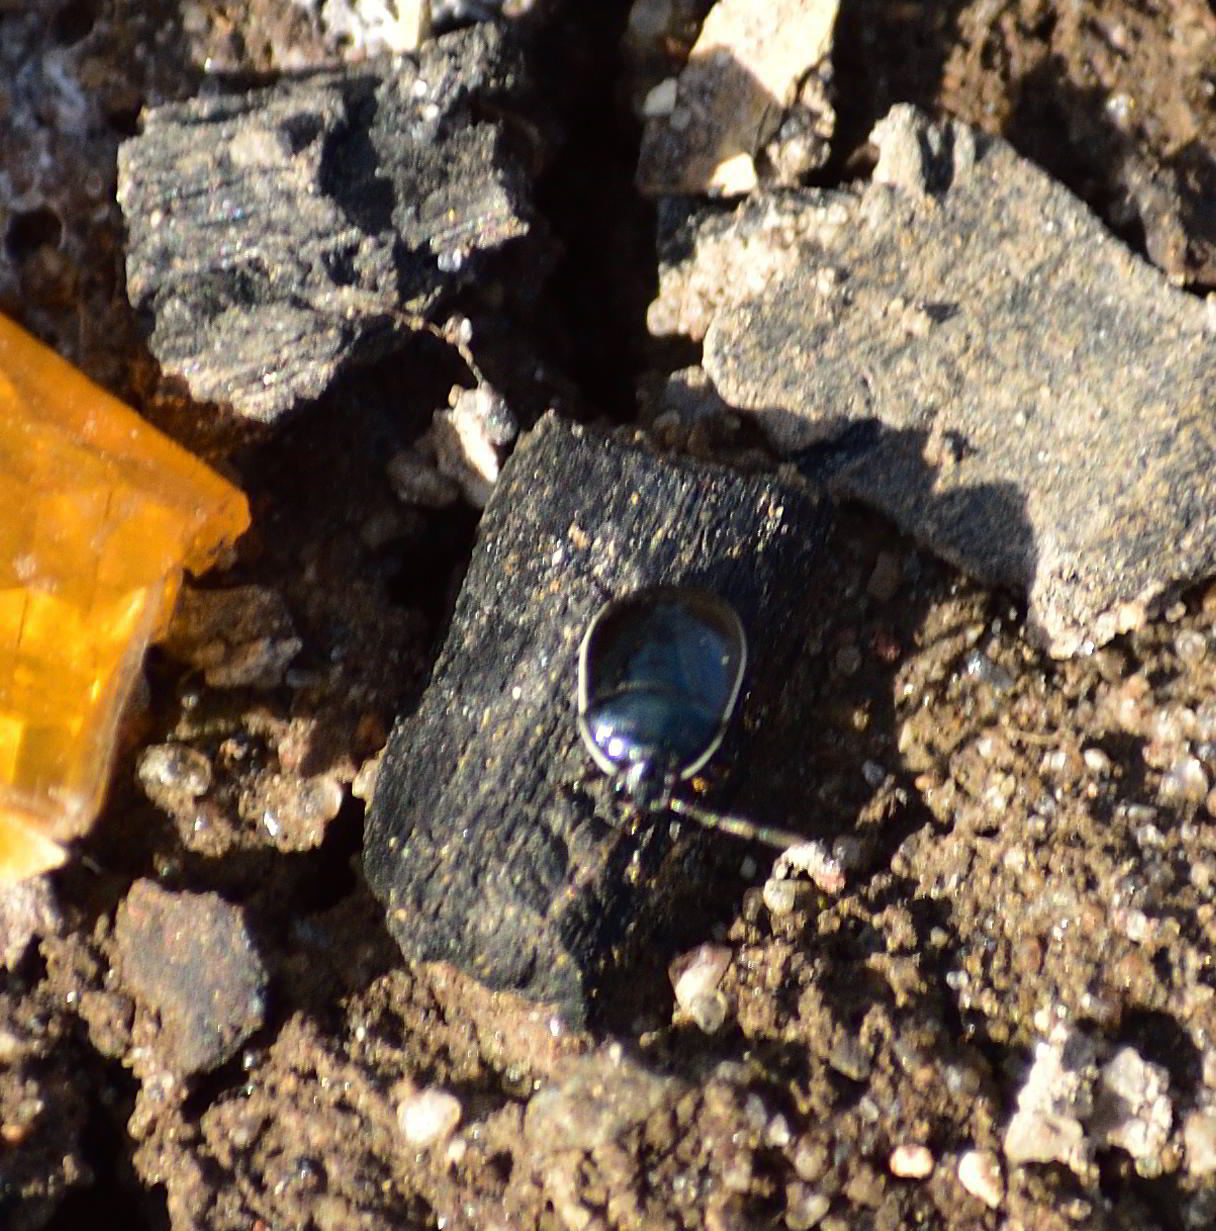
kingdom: Animalia
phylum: Arthropoda
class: Insecta
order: Hemiptera
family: Cydnidae
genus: Sehirus
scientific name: Sehirus cinctus
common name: White-margined burrower bug
